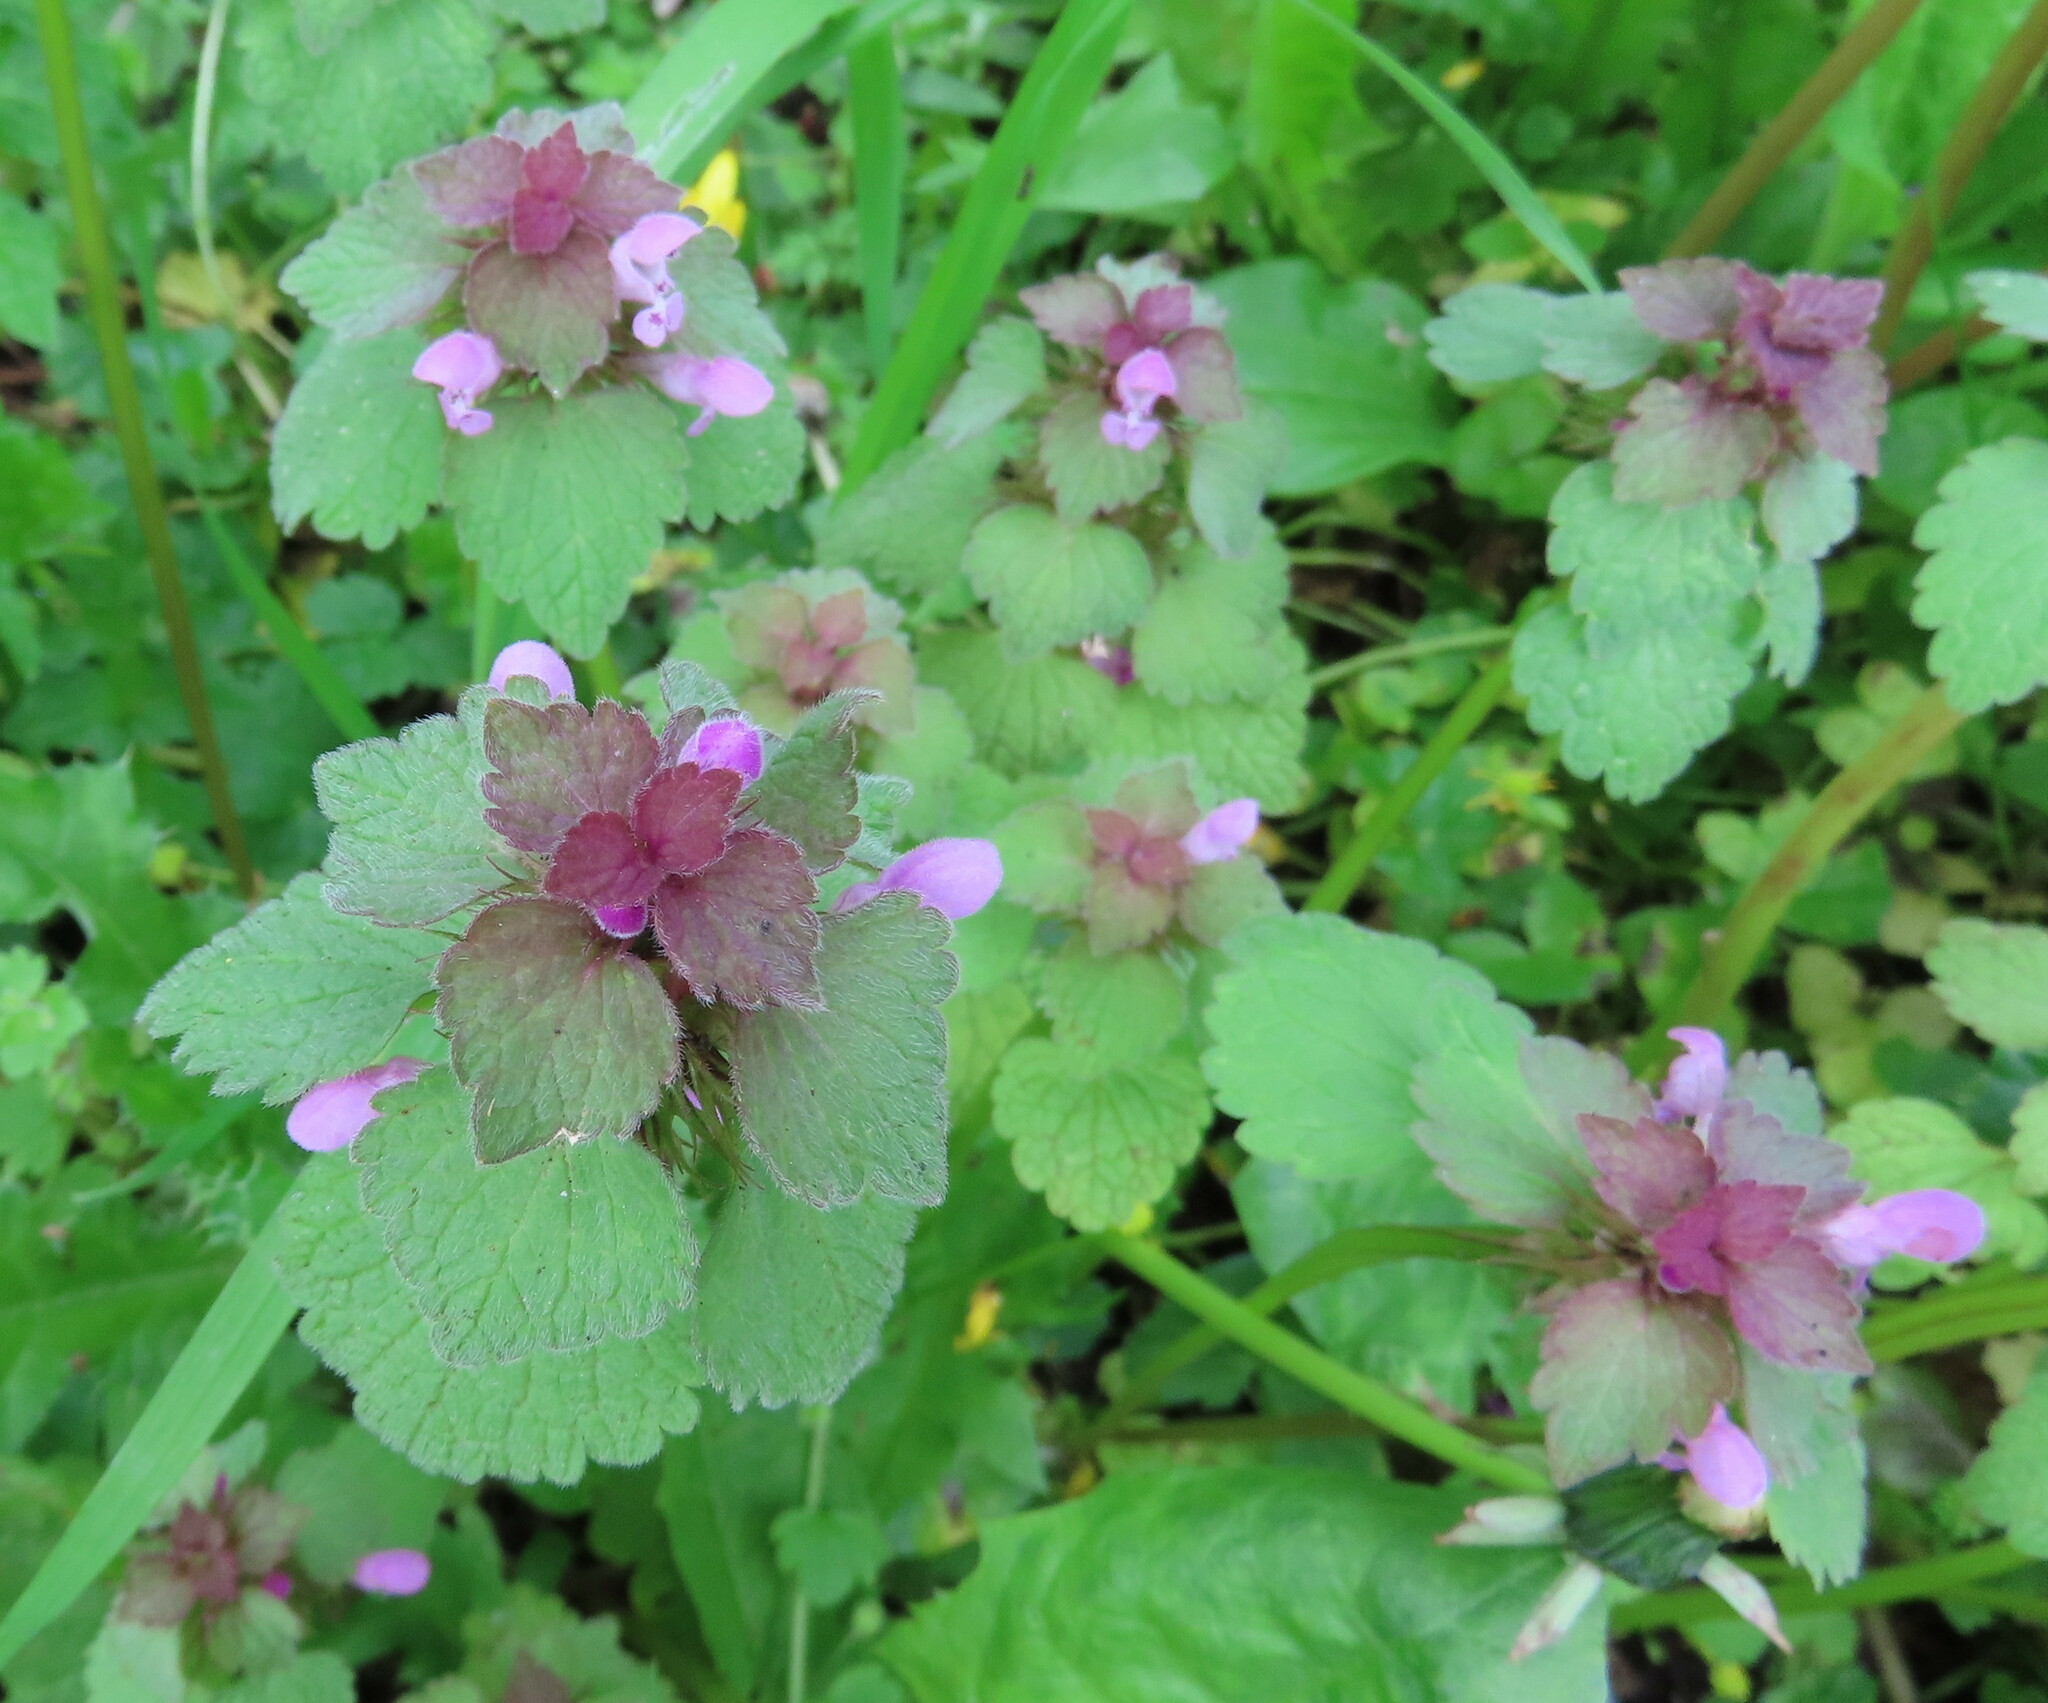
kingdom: Plantae
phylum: Tracheophyta
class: Magnoliopsida
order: Lamiales
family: Lamiaceae
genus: Lamium
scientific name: Lamium purpureum
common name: Red dead-nettle
